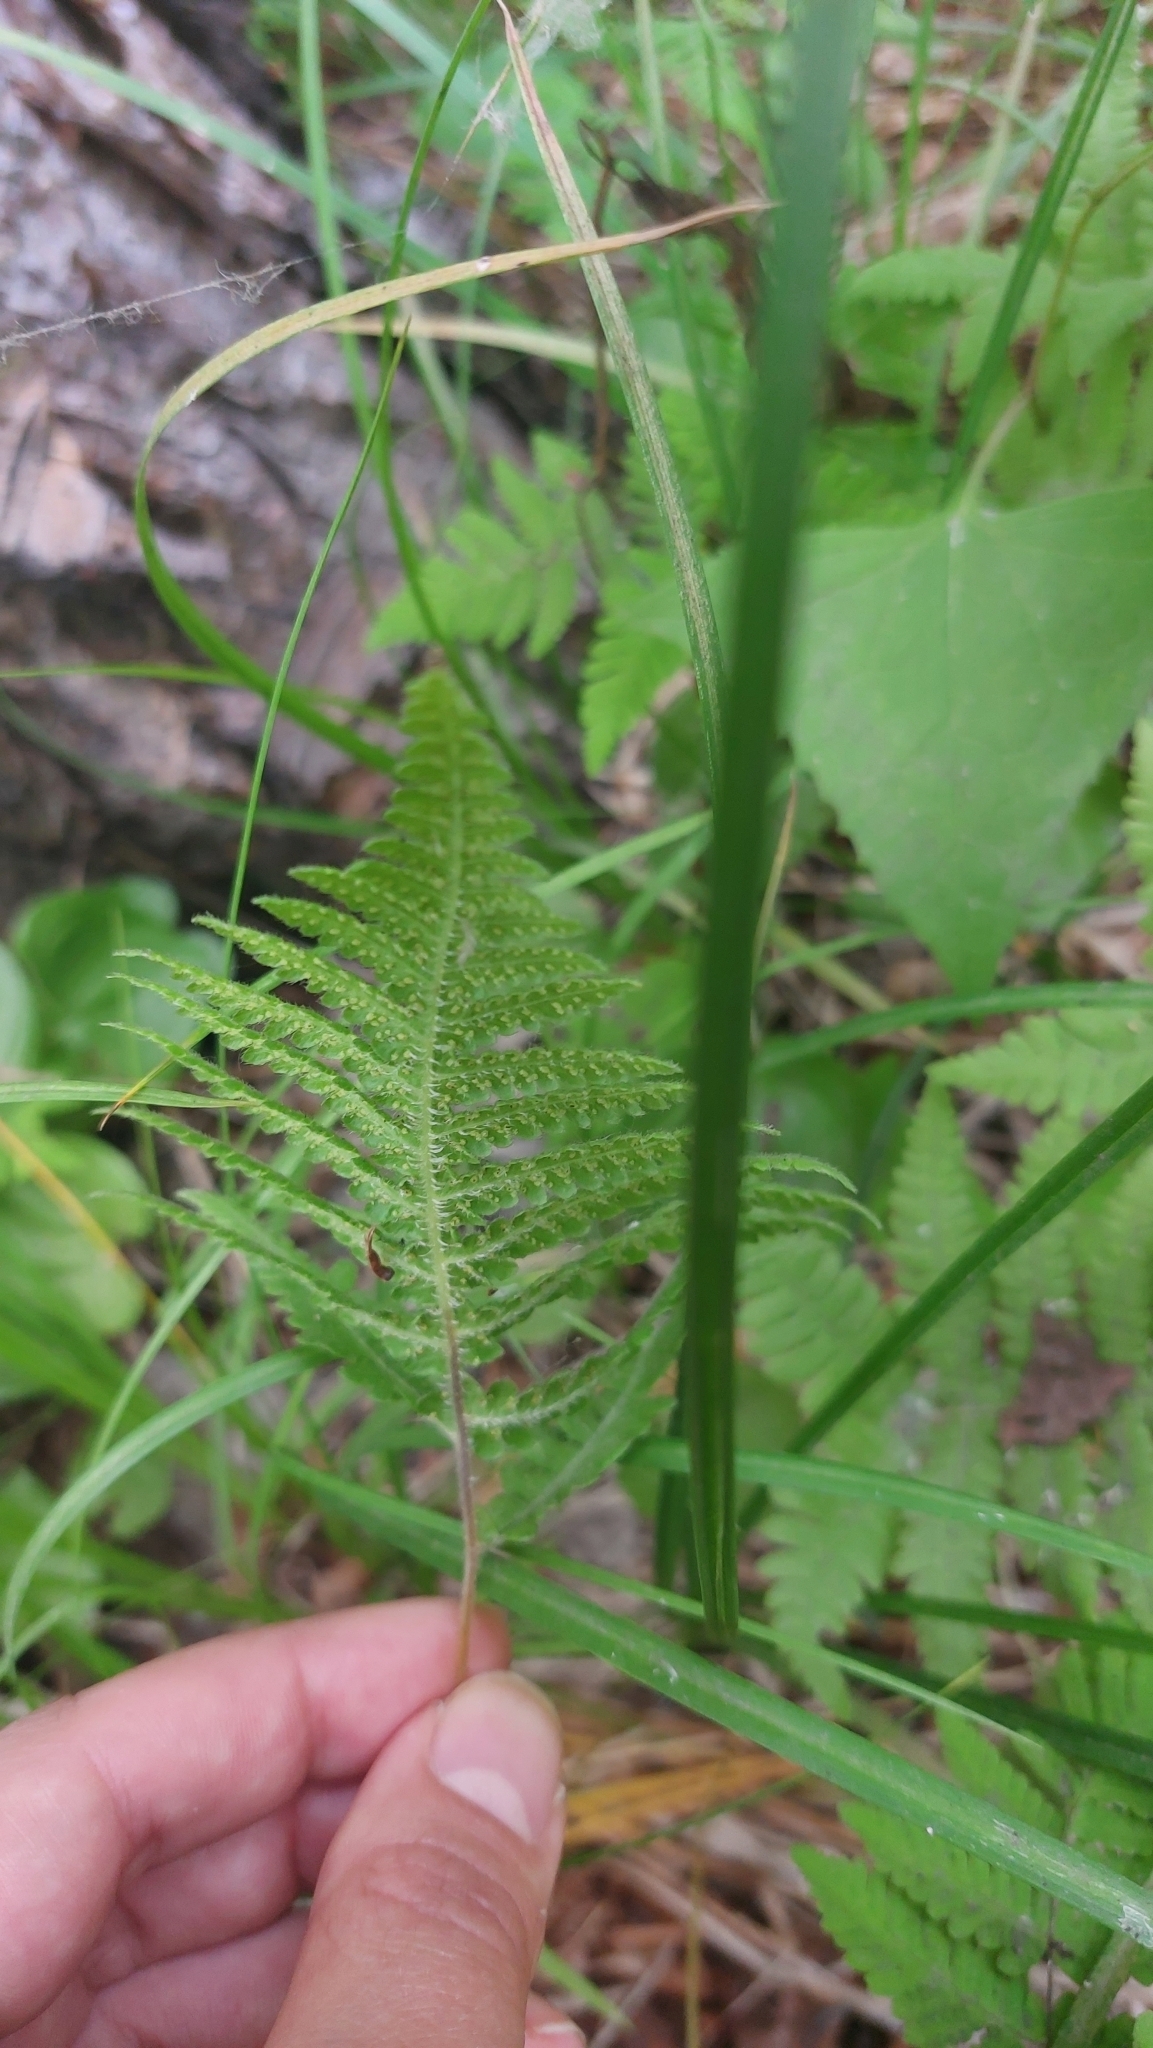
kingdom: Plantae
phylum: Tracheophyta
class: Polypodiopsida
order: Polypodiales
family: Thelypteridaceae
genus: Phegopteris
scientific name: Phegopteris connectilis
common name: Beech fern
